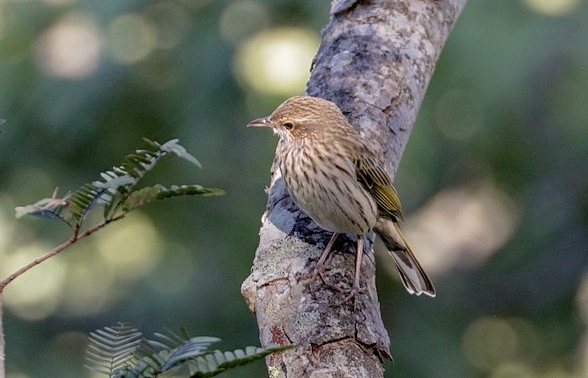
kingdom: Animalia
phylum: Chordata
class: Aves
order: Passeriformes
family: Motacillidae
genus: Anthus
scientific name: Anthus lineiventris
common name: Striped pipit
